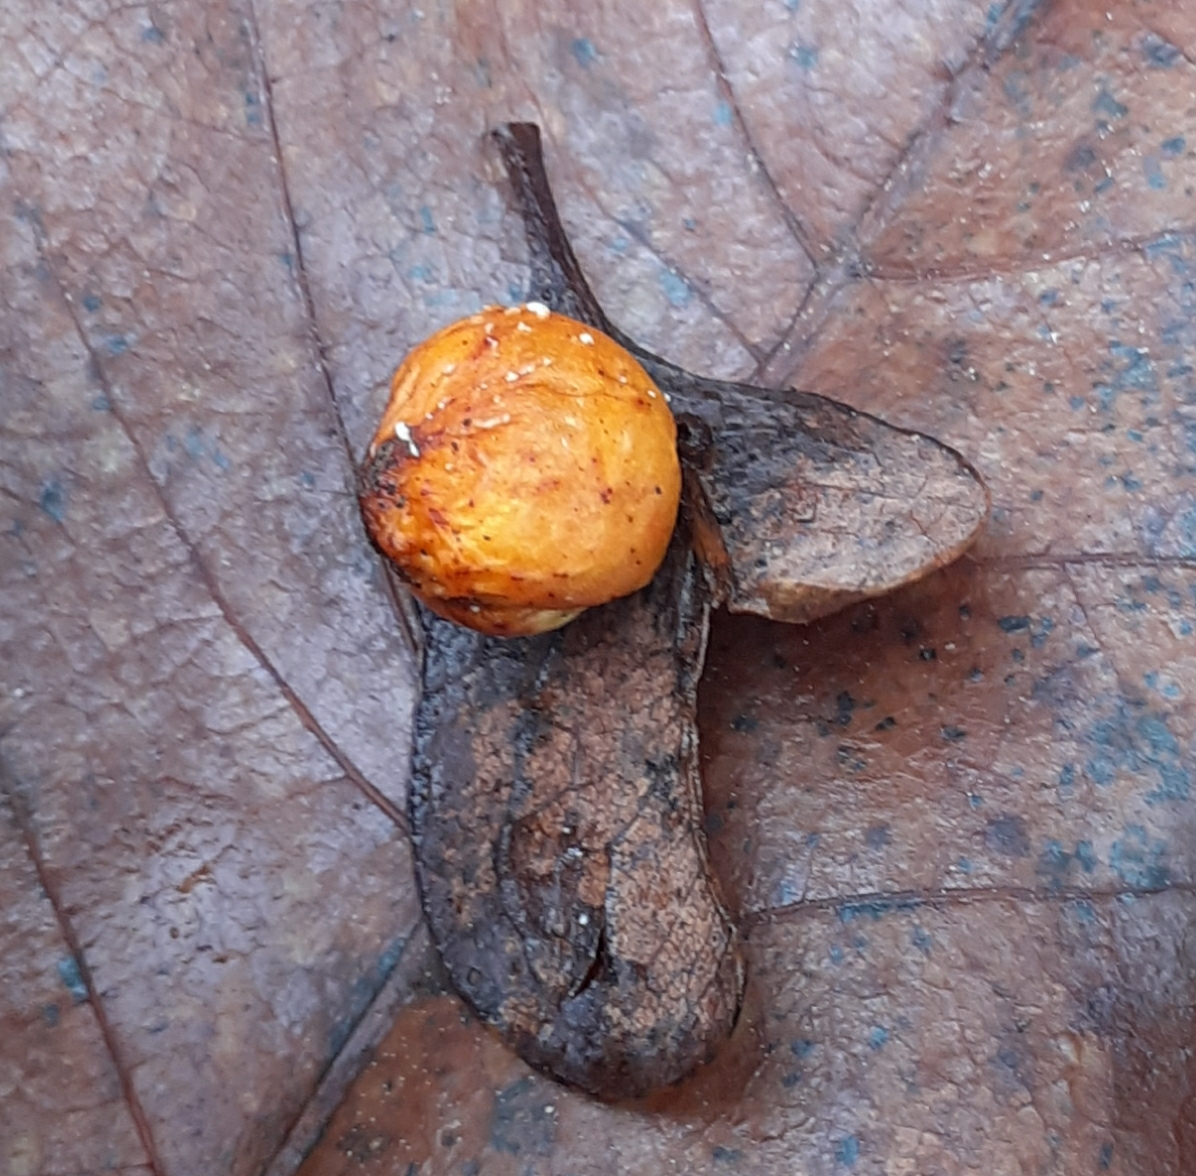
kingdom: Animalia
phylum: Arthropoda
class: Insecta
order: Hymenoptera
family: Cynipidae
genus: Cynips
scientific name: Cynips quercusfolii
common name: Cherry gall
